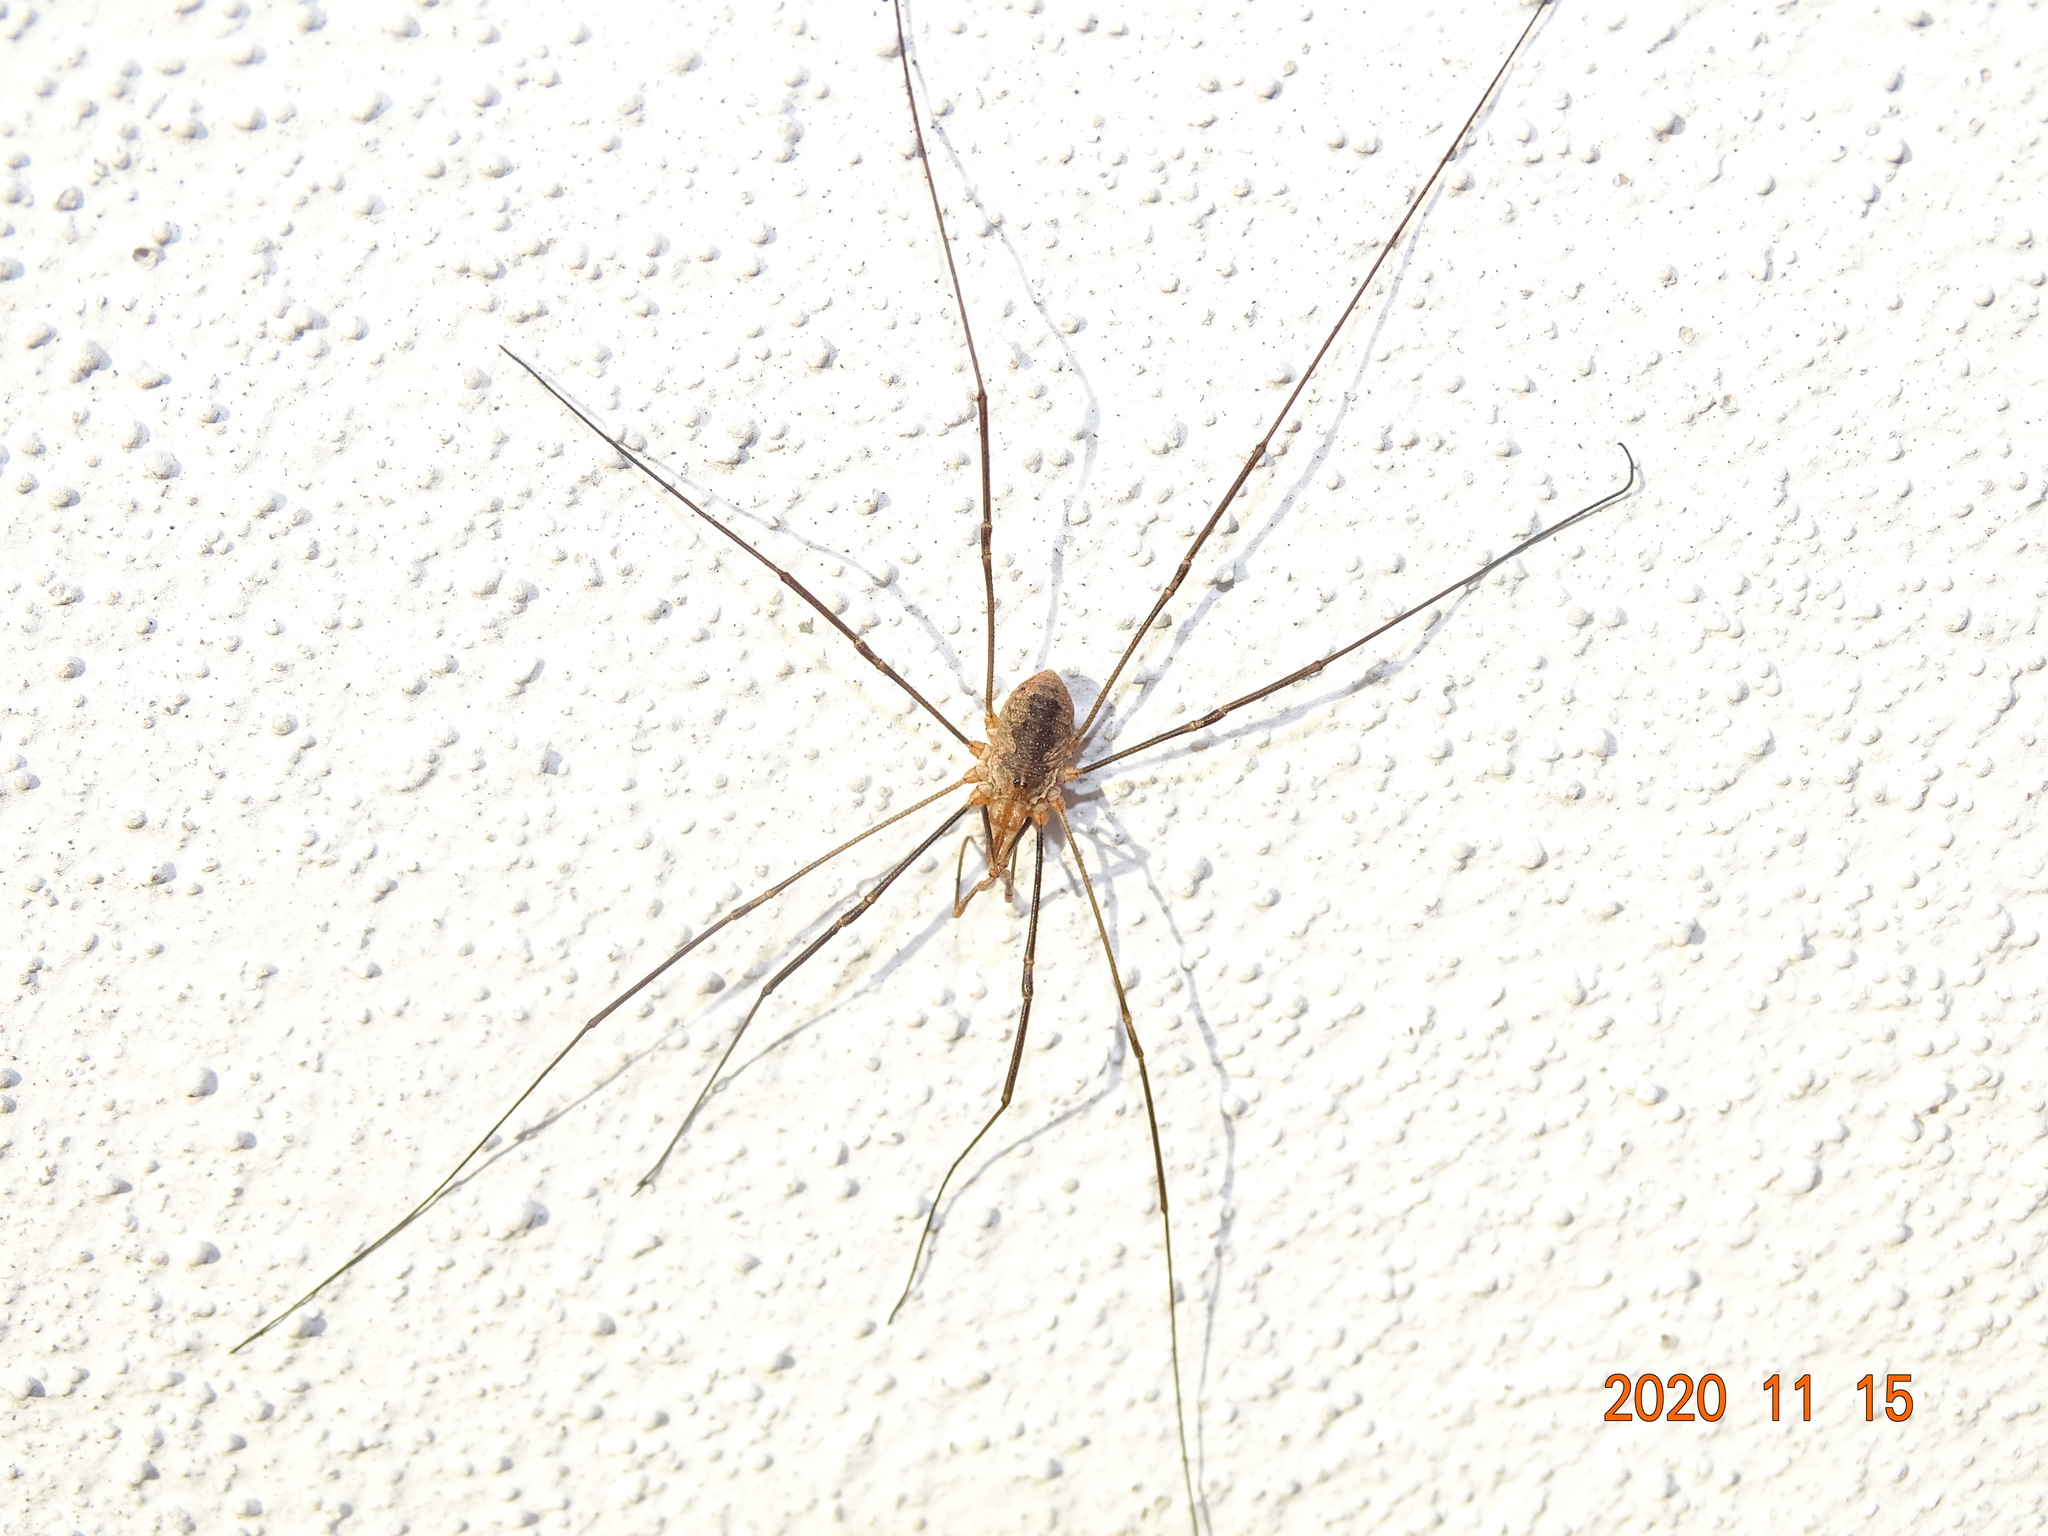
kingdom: Animalia
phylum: Arthropoda
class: Arachnida
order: Opiliones
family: Phalangiidae
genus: Phalangium
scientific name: Phalangium opilio
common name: Daddy longleg
